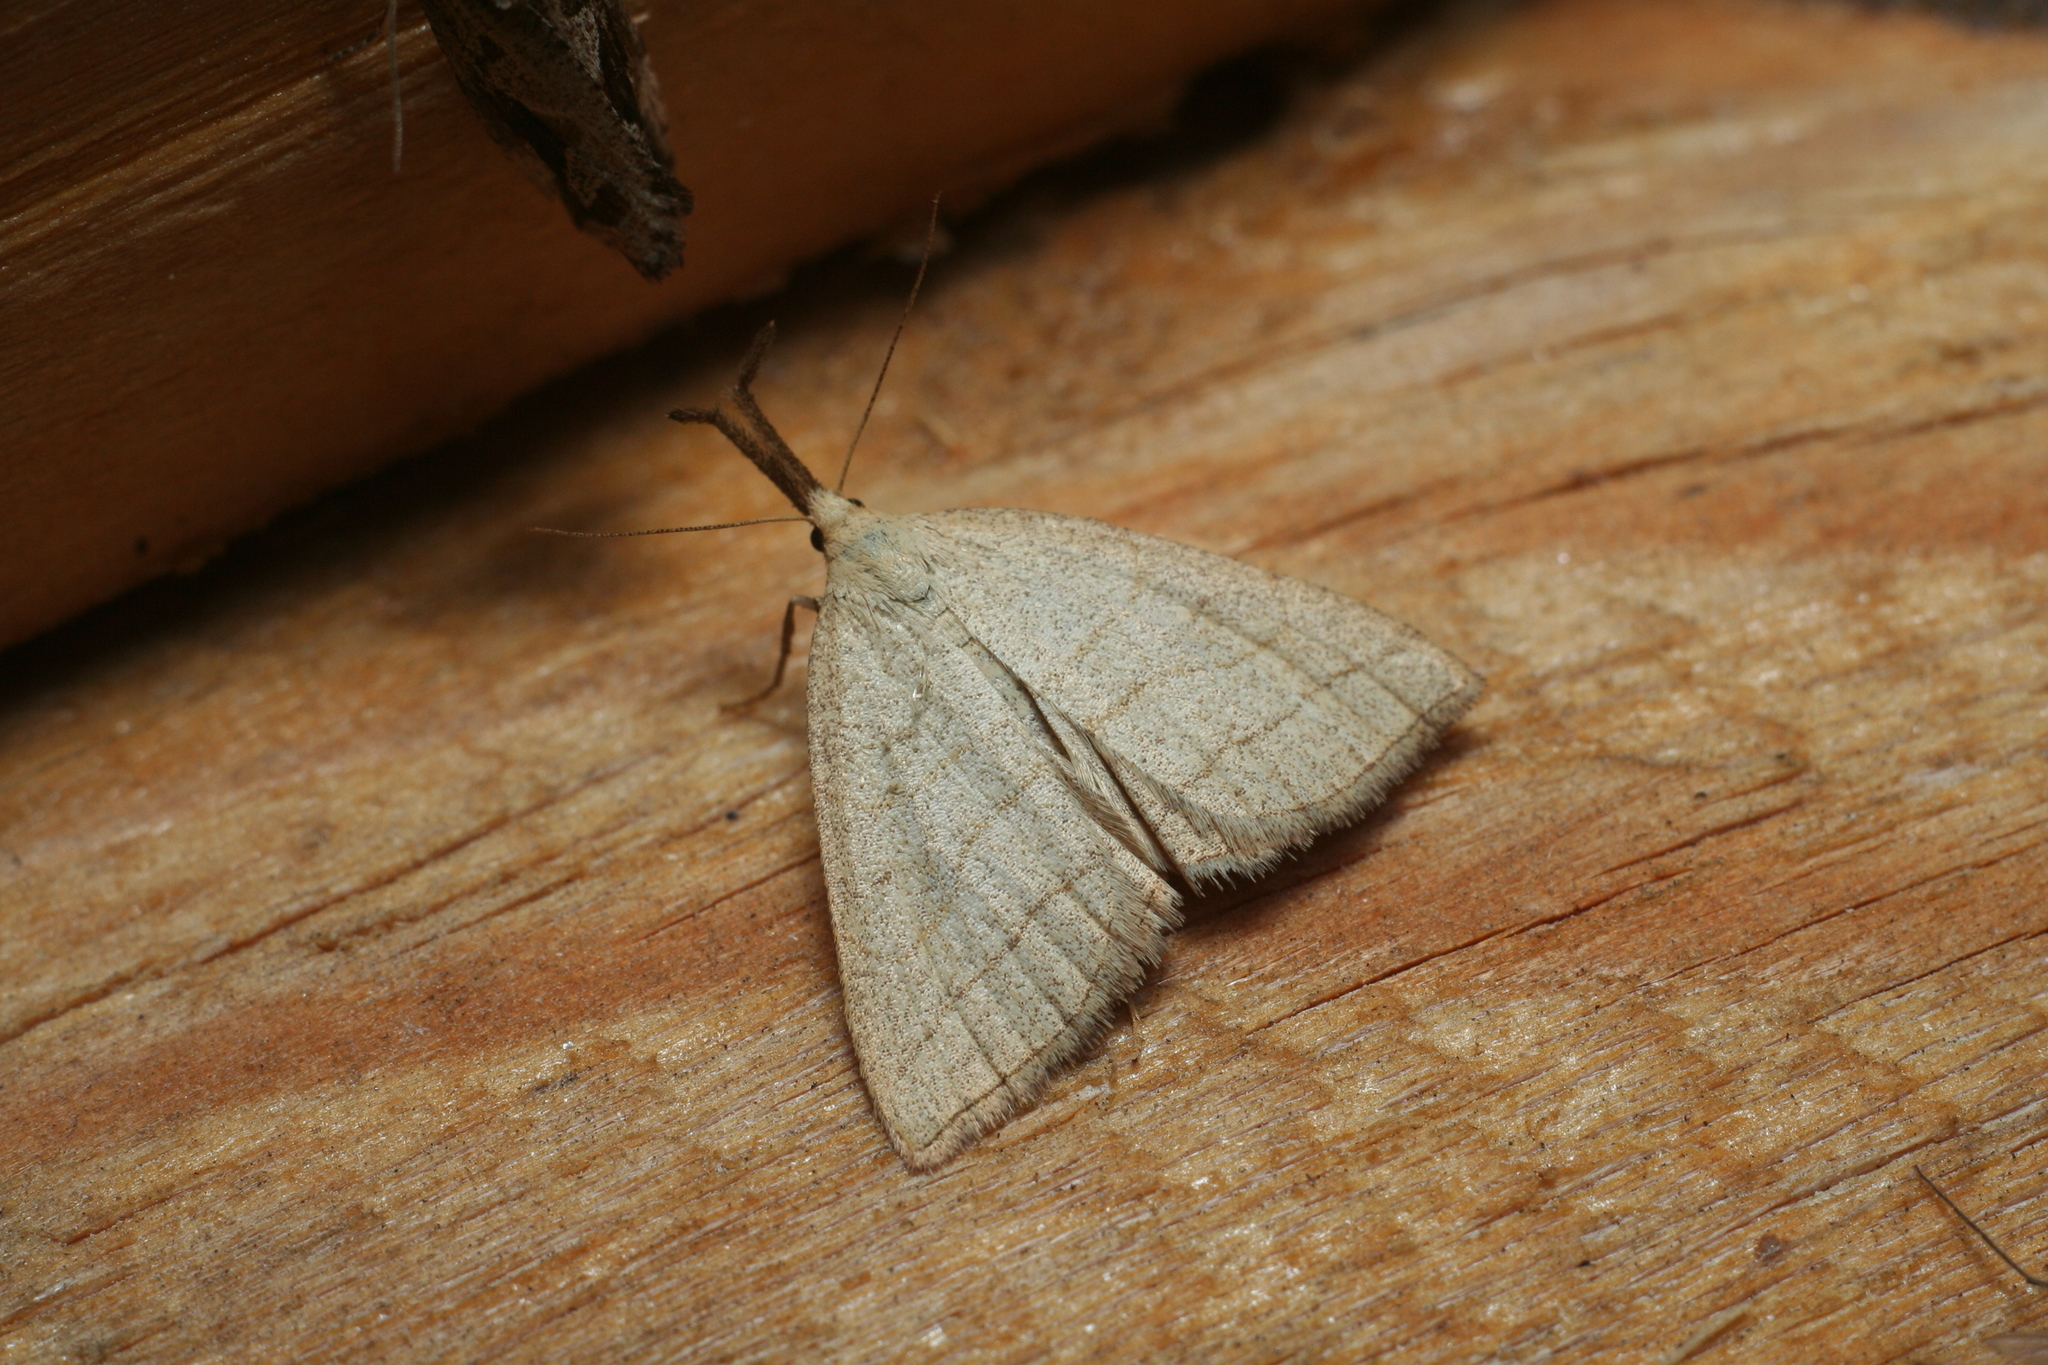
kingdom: Animalia
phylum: Arthropoda
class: Insecta
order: Lepidoptera
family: Erebidae
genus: Polypogon
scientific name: Polypogon tentacularia
